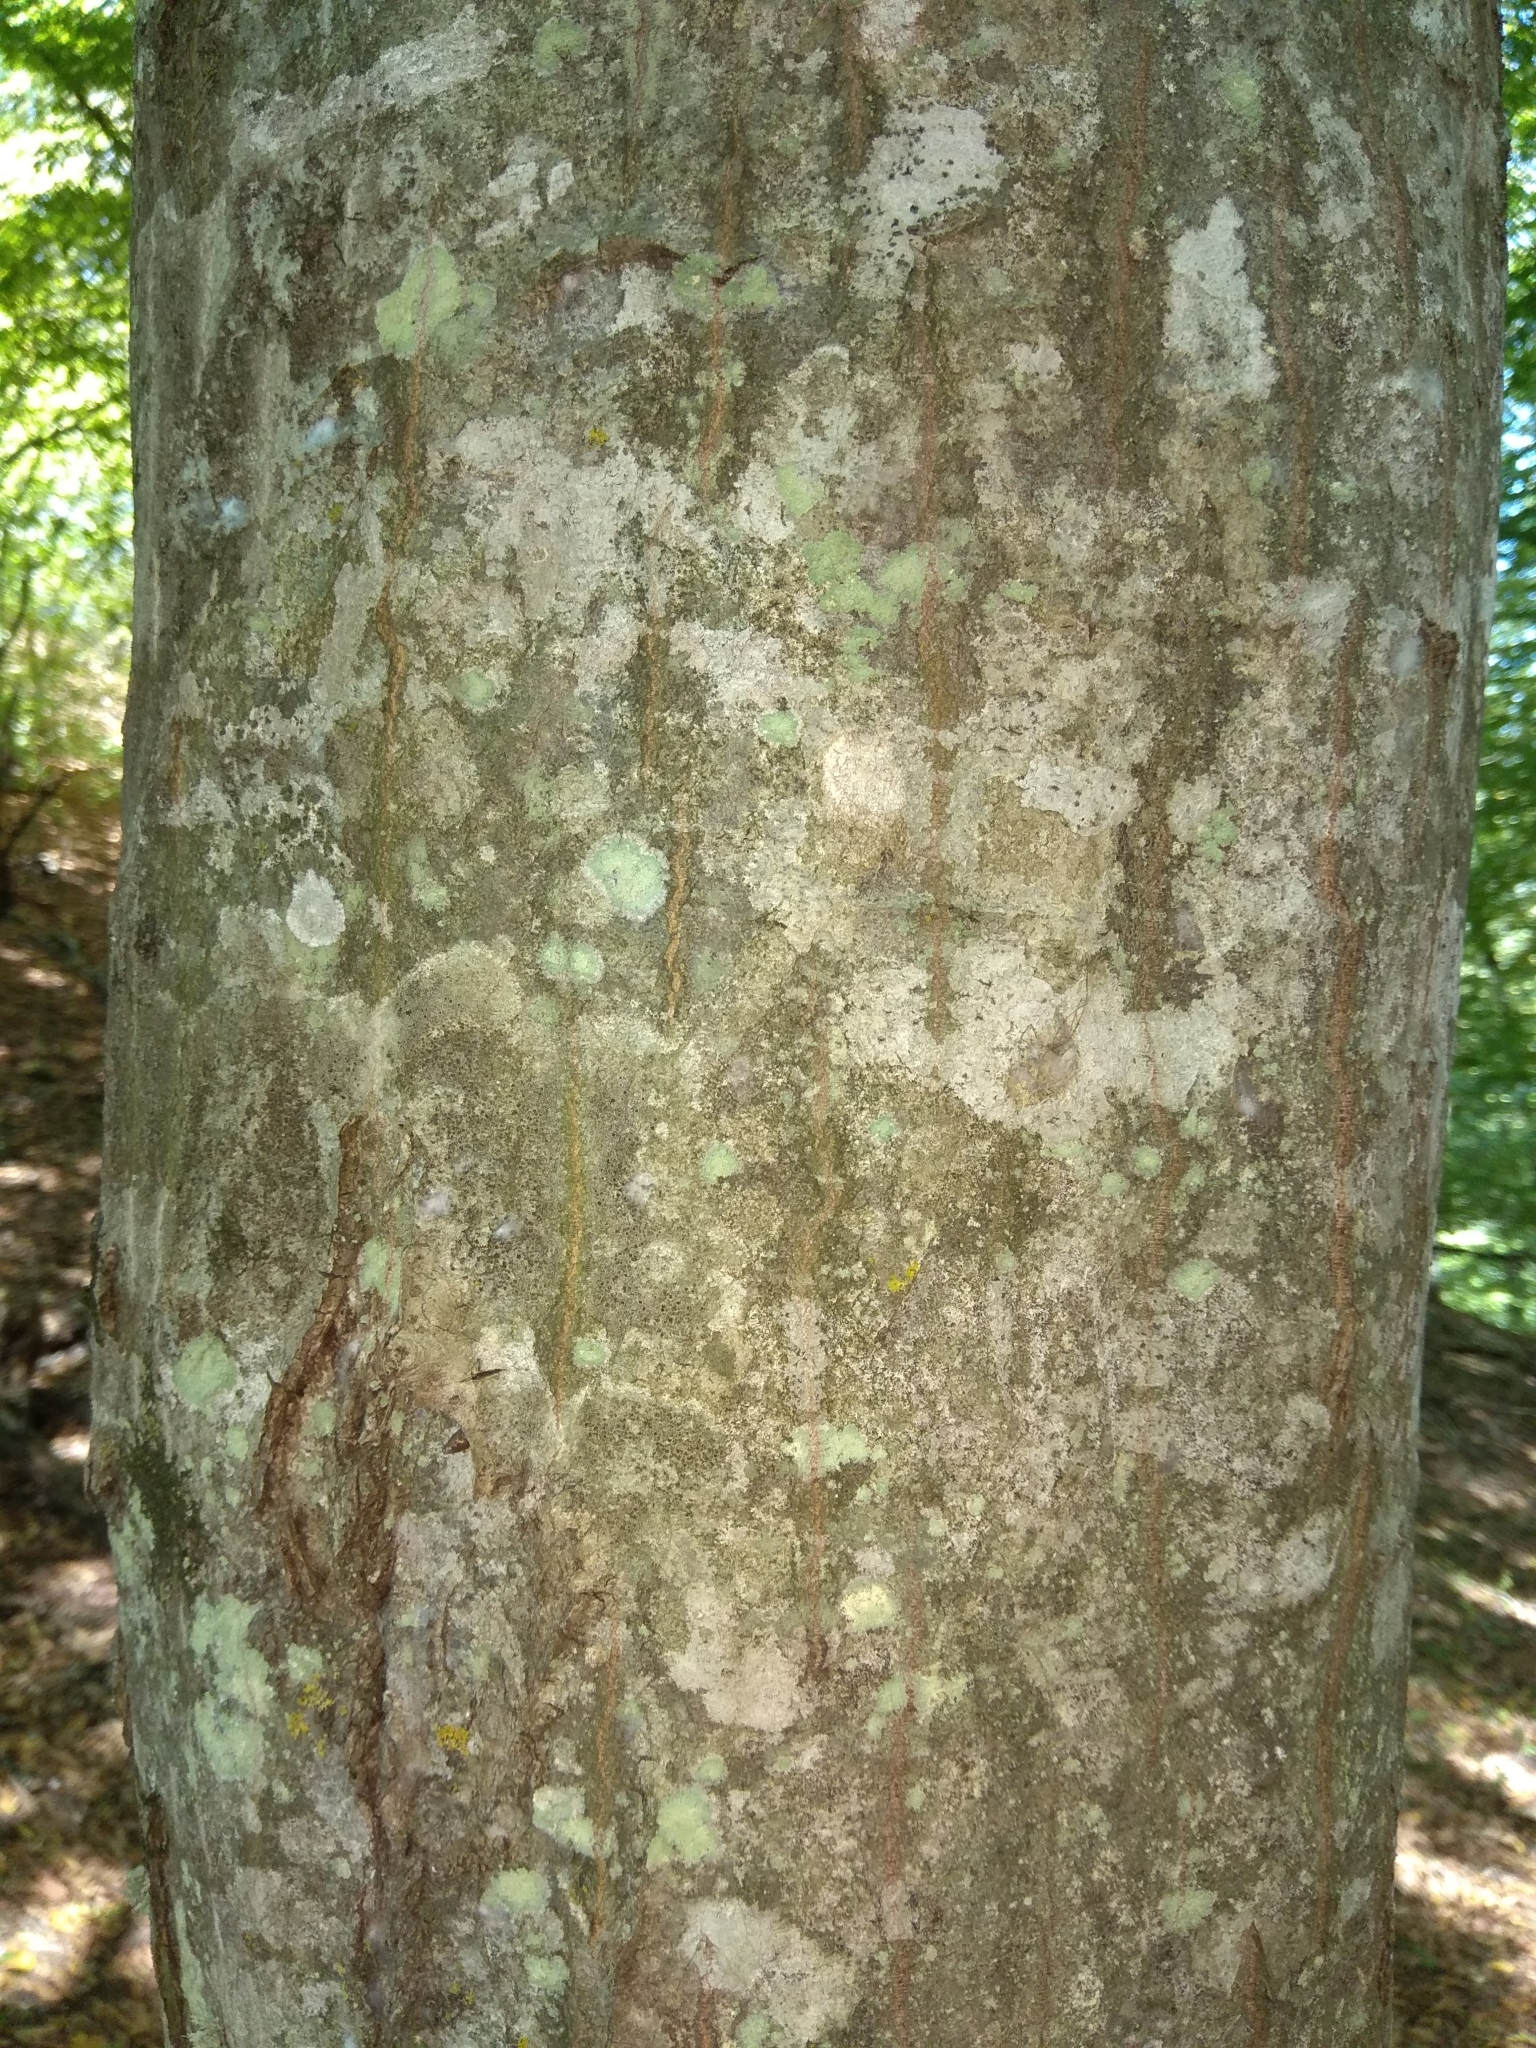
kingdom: Plantae
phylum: Tracheophyta
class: Magnoliopsida
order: Fagales
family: Fagaceae
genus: Fagus
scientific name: Fagus orientalis
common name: Oriental beech
